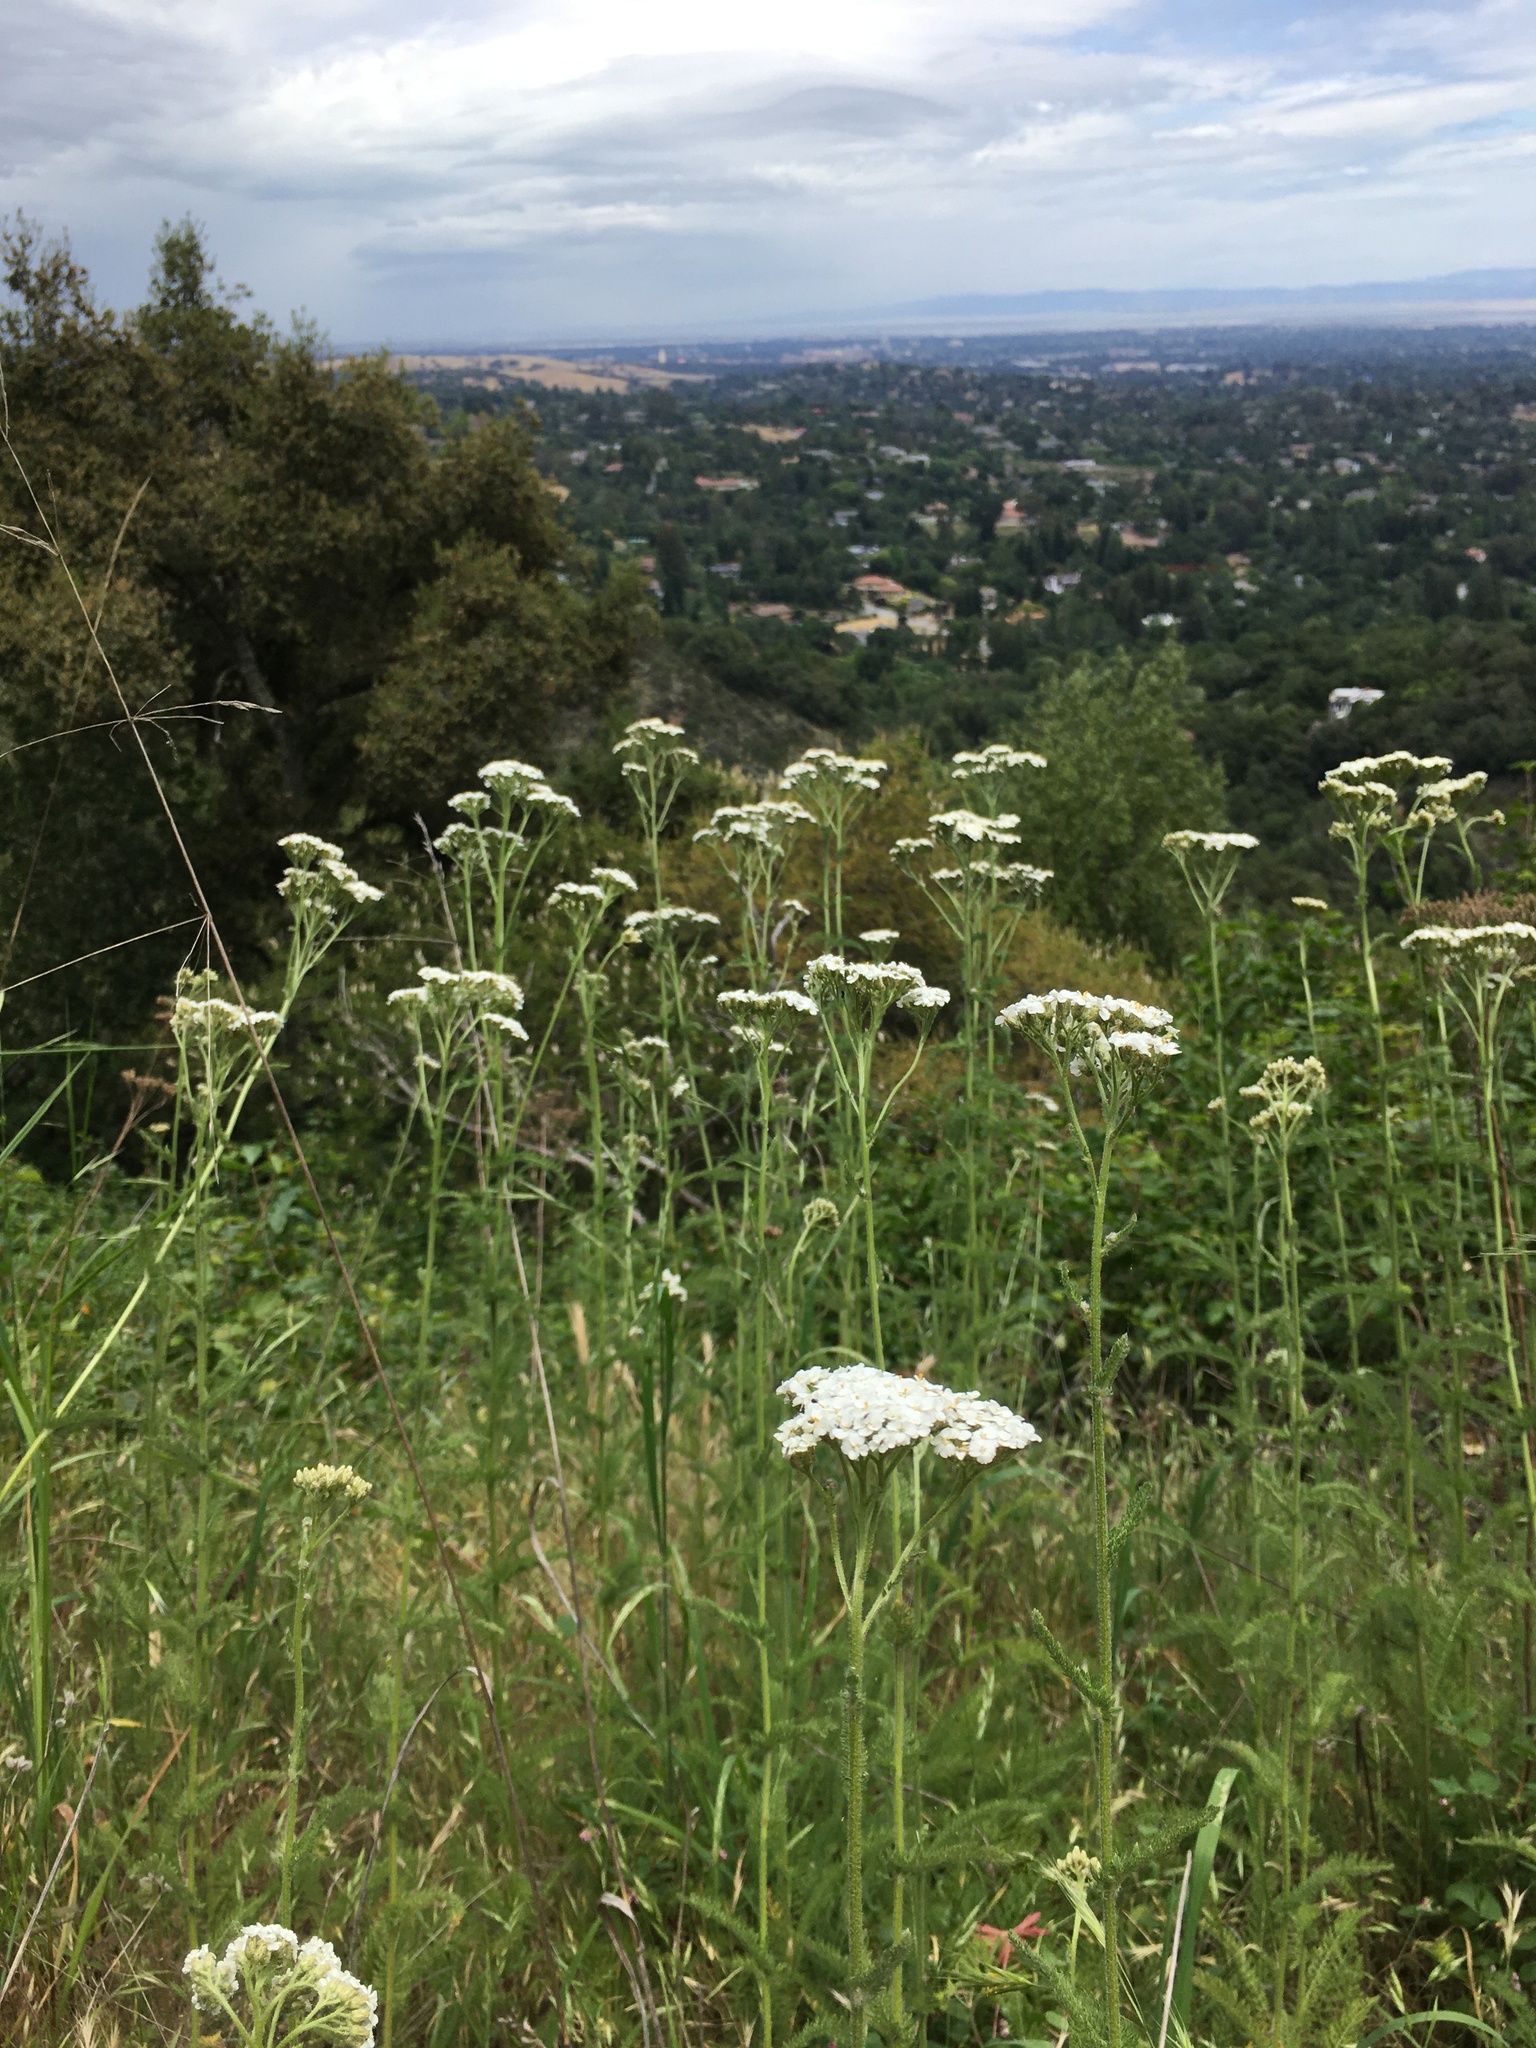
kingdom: Plantae
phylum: Tracheophyta
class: Magnoliopsida
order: Asterales
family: Asteraceae
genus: Achillea
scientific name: Achillea millefolium
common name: Yarrow
